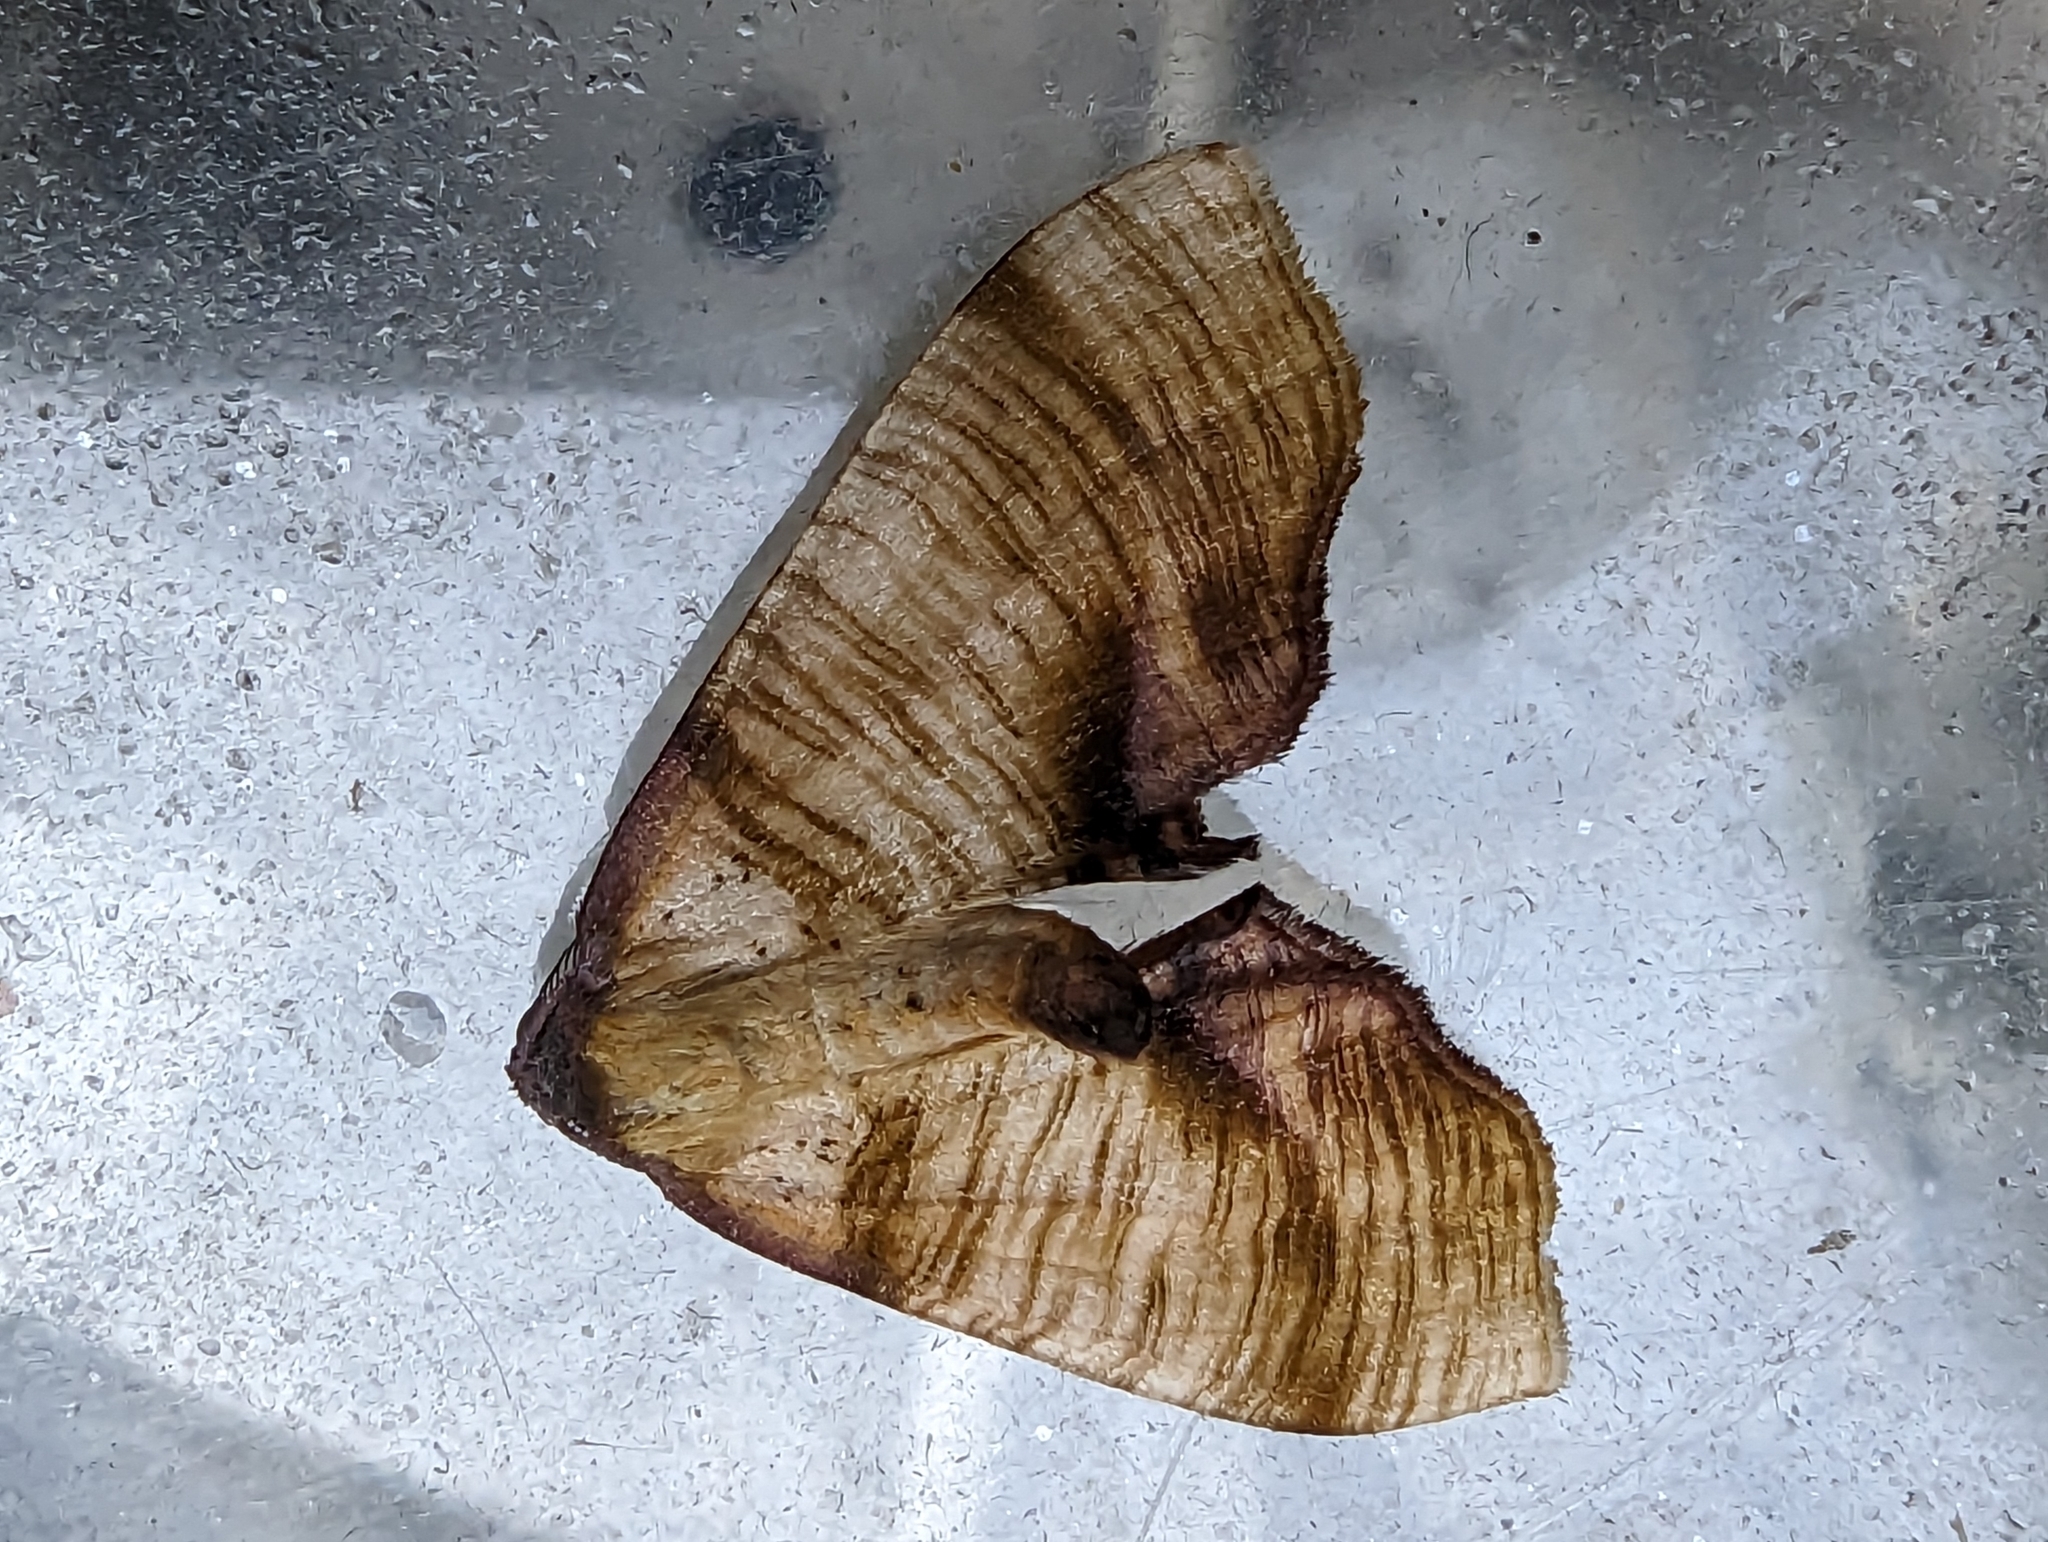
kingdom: Animalia
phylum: Arthropoda
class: Insecta
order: Lepidoptera
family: Geometridae
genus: Plagodis
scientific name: Plagodis dolabraria
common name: Scorched wing
